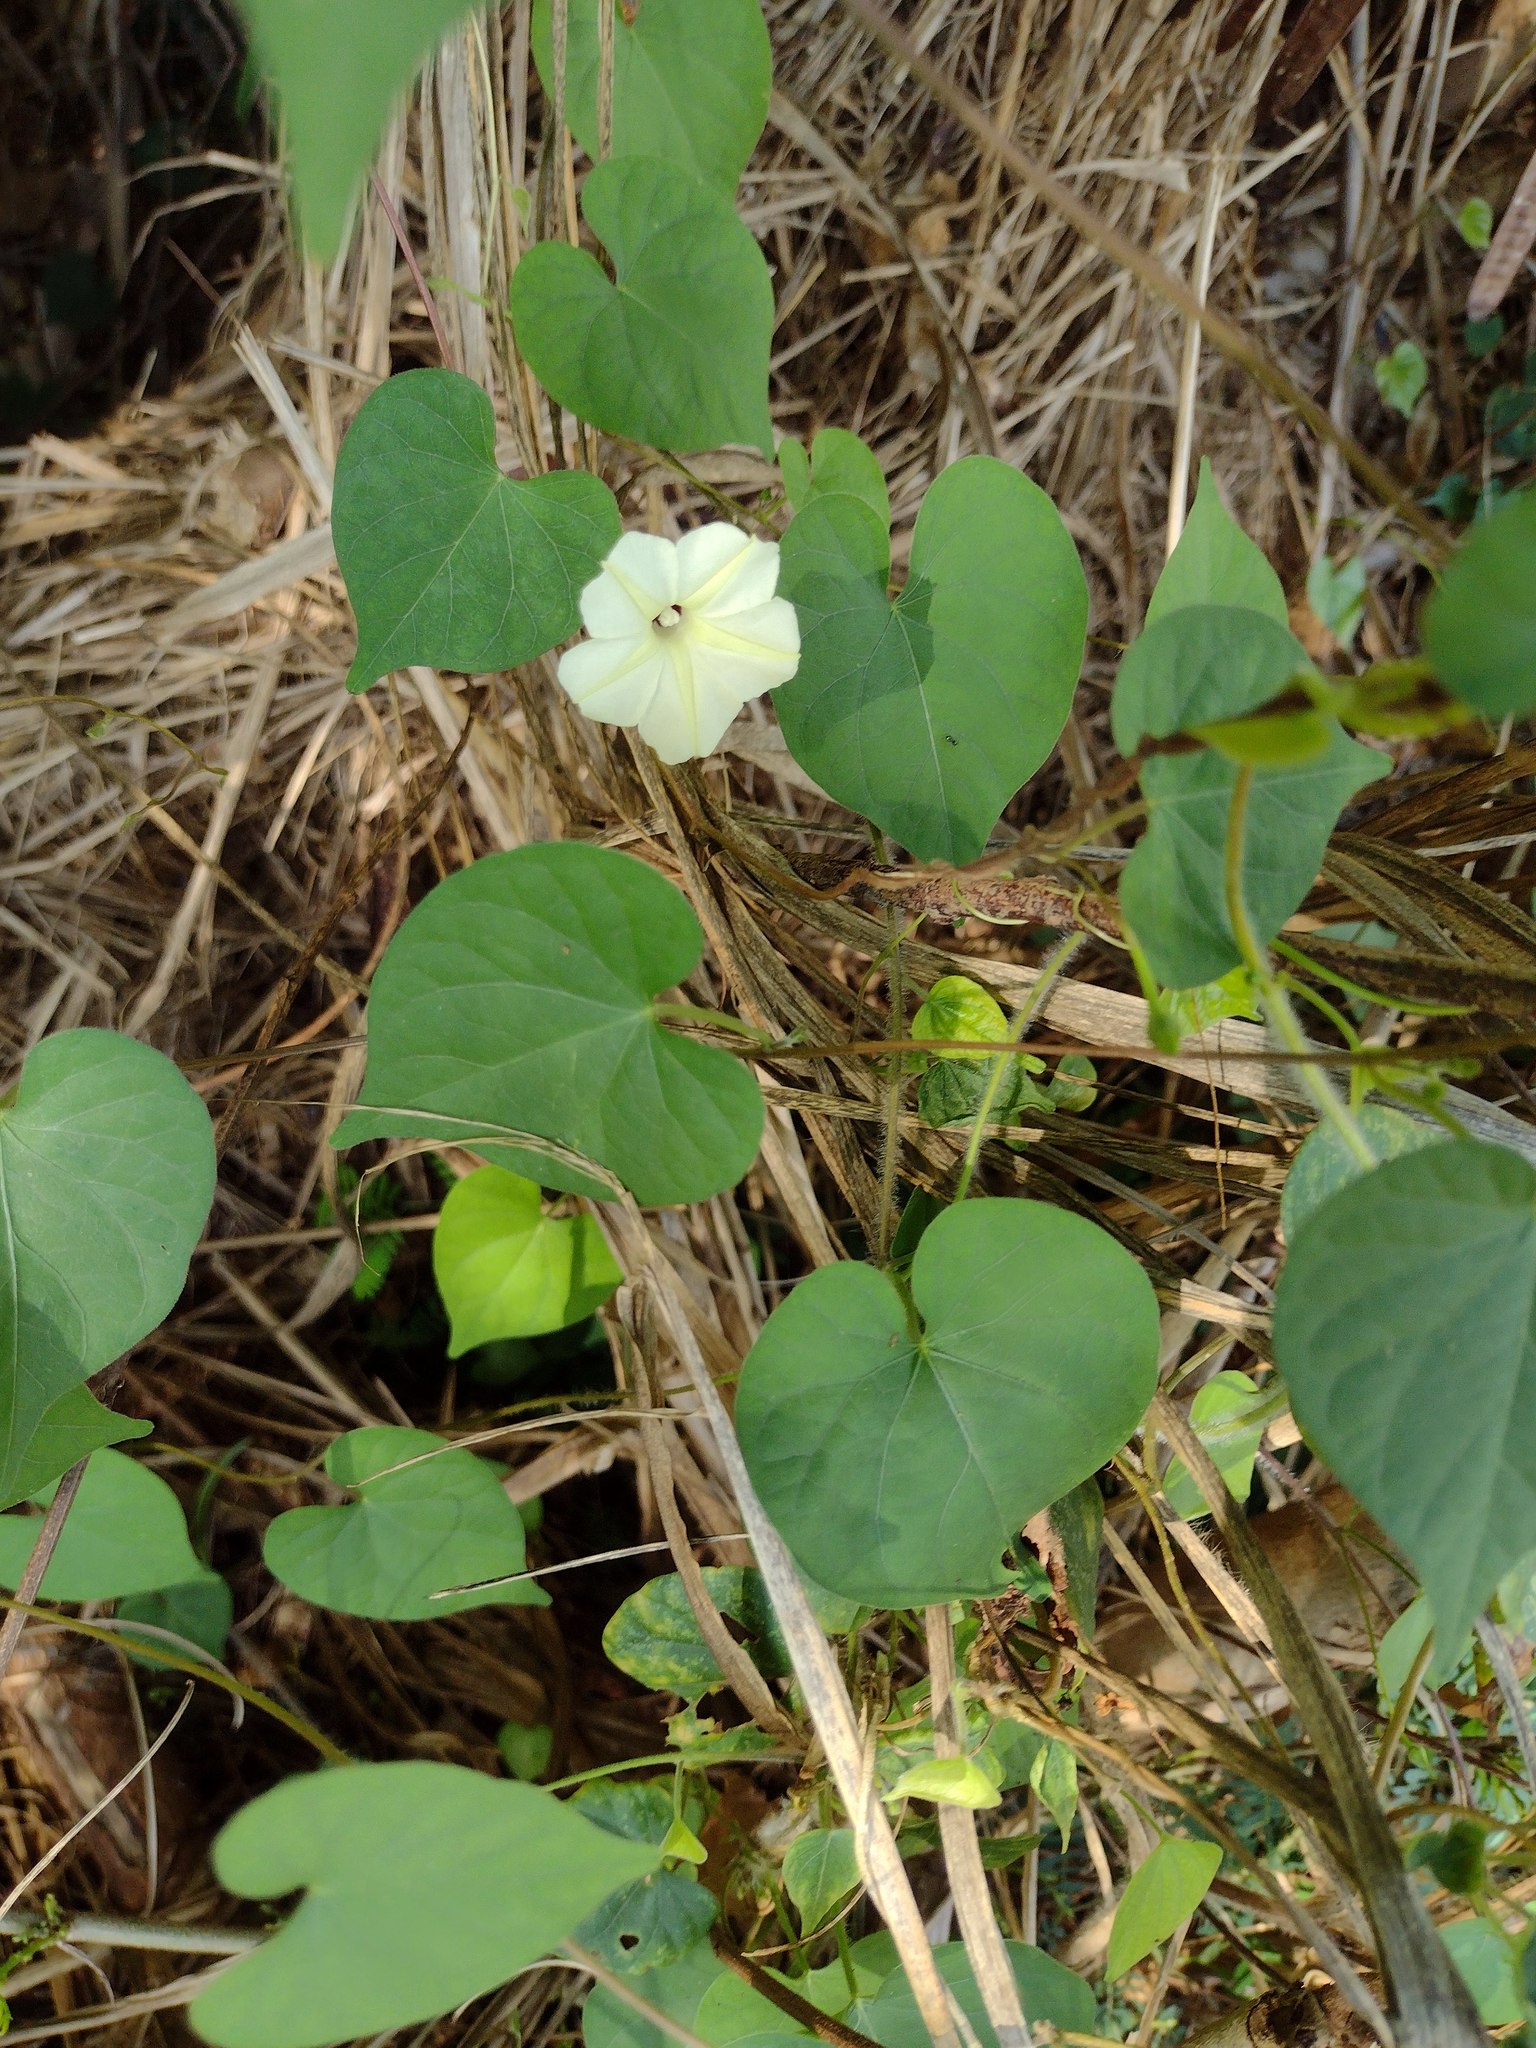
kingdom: Plantae
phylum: Tracheophyta
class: Magnoliopsida
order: Solanales
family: Convolvulaceae
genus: Ipomoea
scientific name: Ipomoea obscura
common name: Obscure morning-glory
